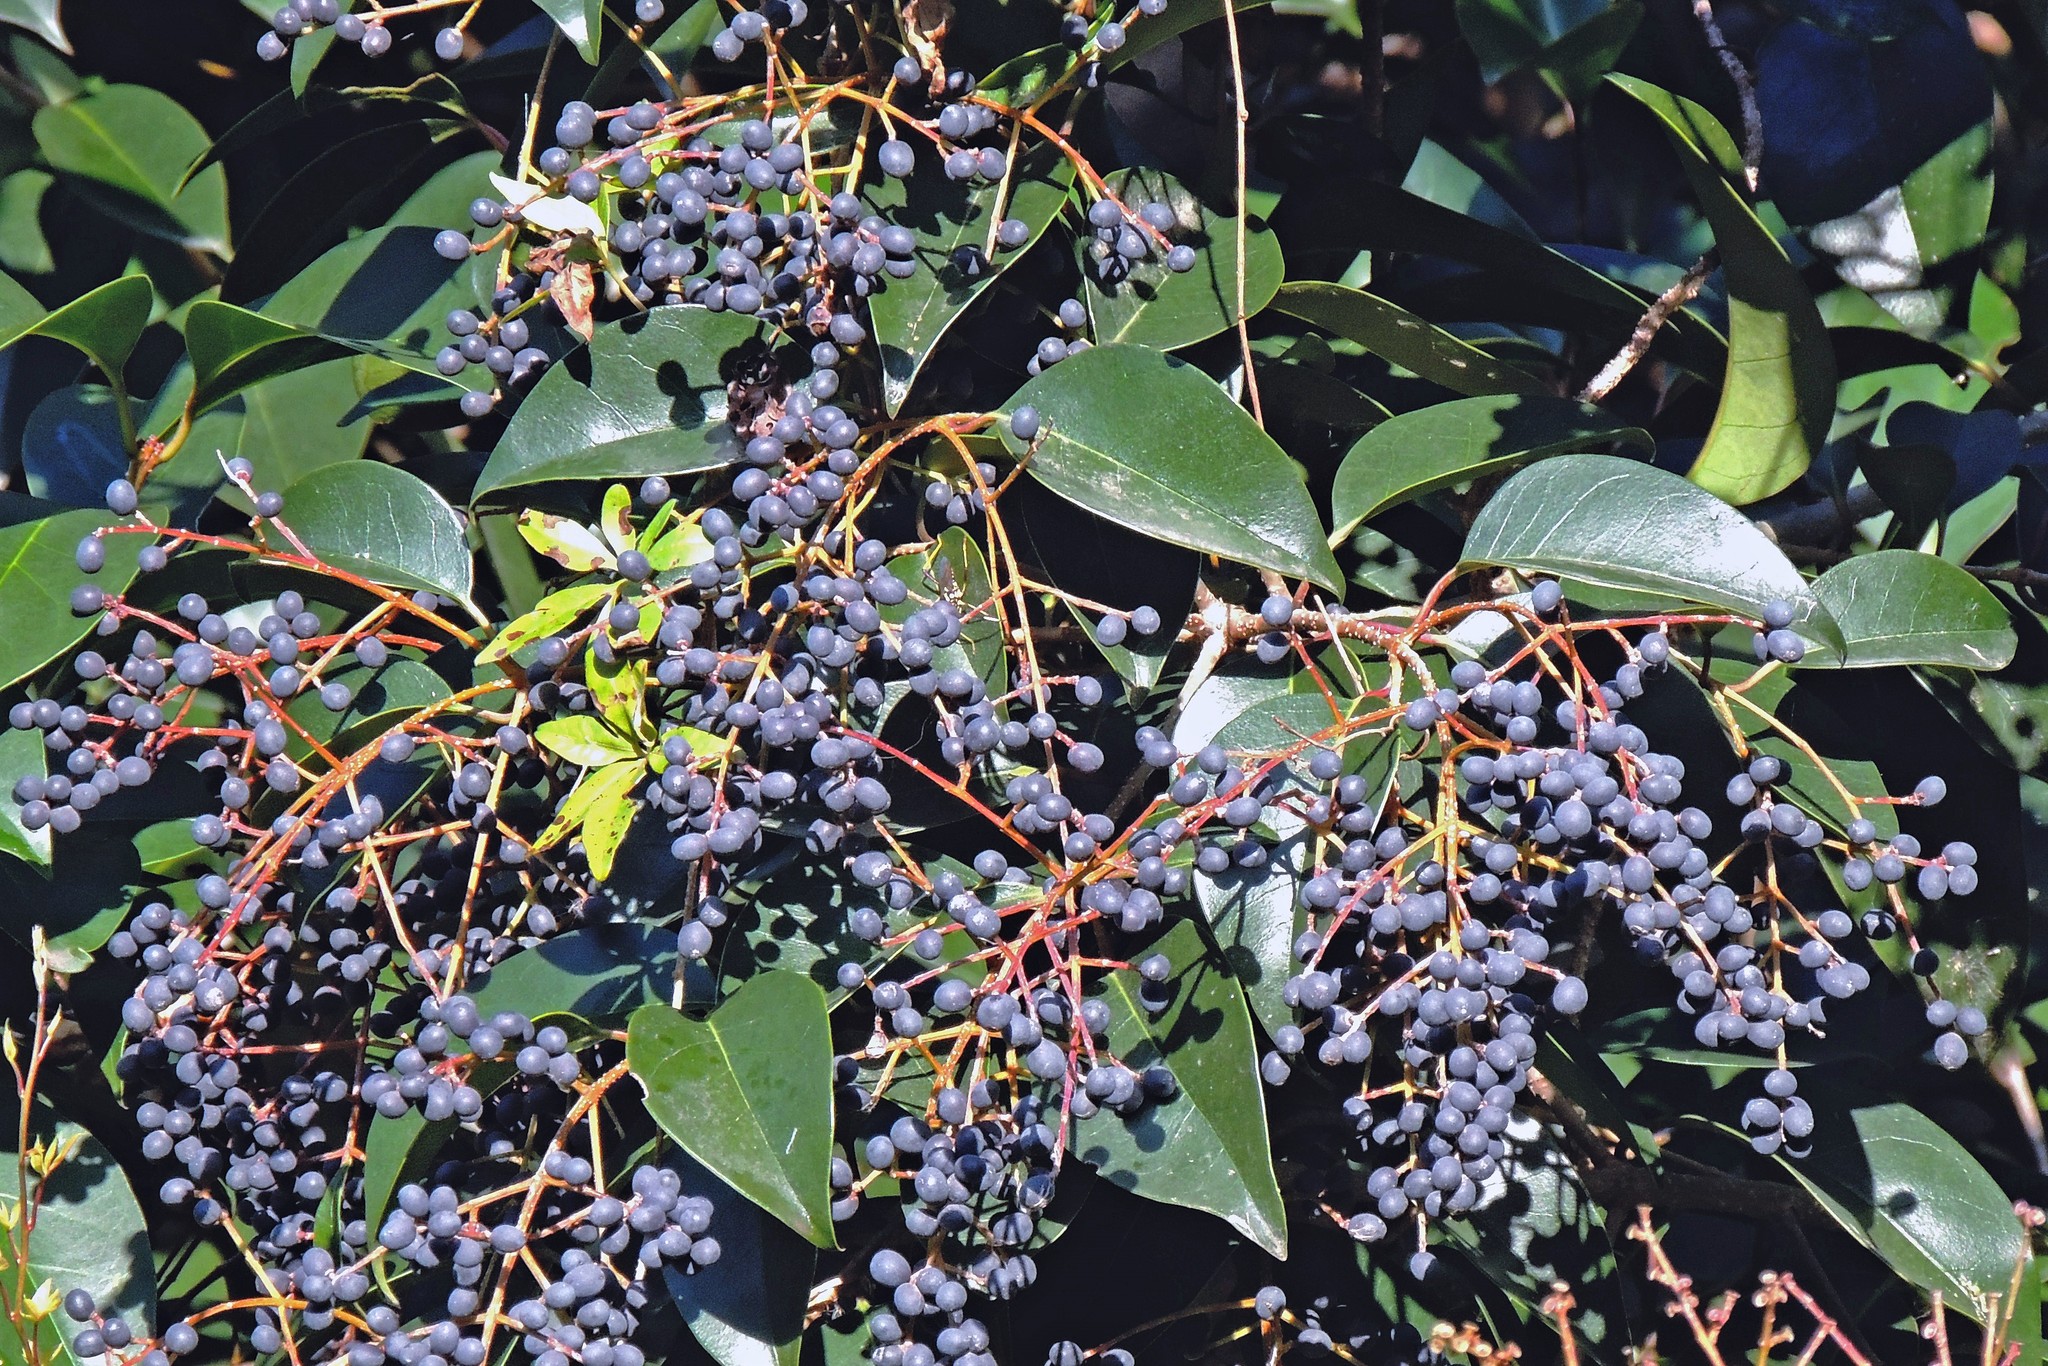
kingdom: Plantae
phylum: Tracheophyta
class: Magnoliopsida
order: Lamiales
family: Oleaceae
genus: Ligustrum
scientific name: Ligustrum lucidum
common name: Glossy privet
